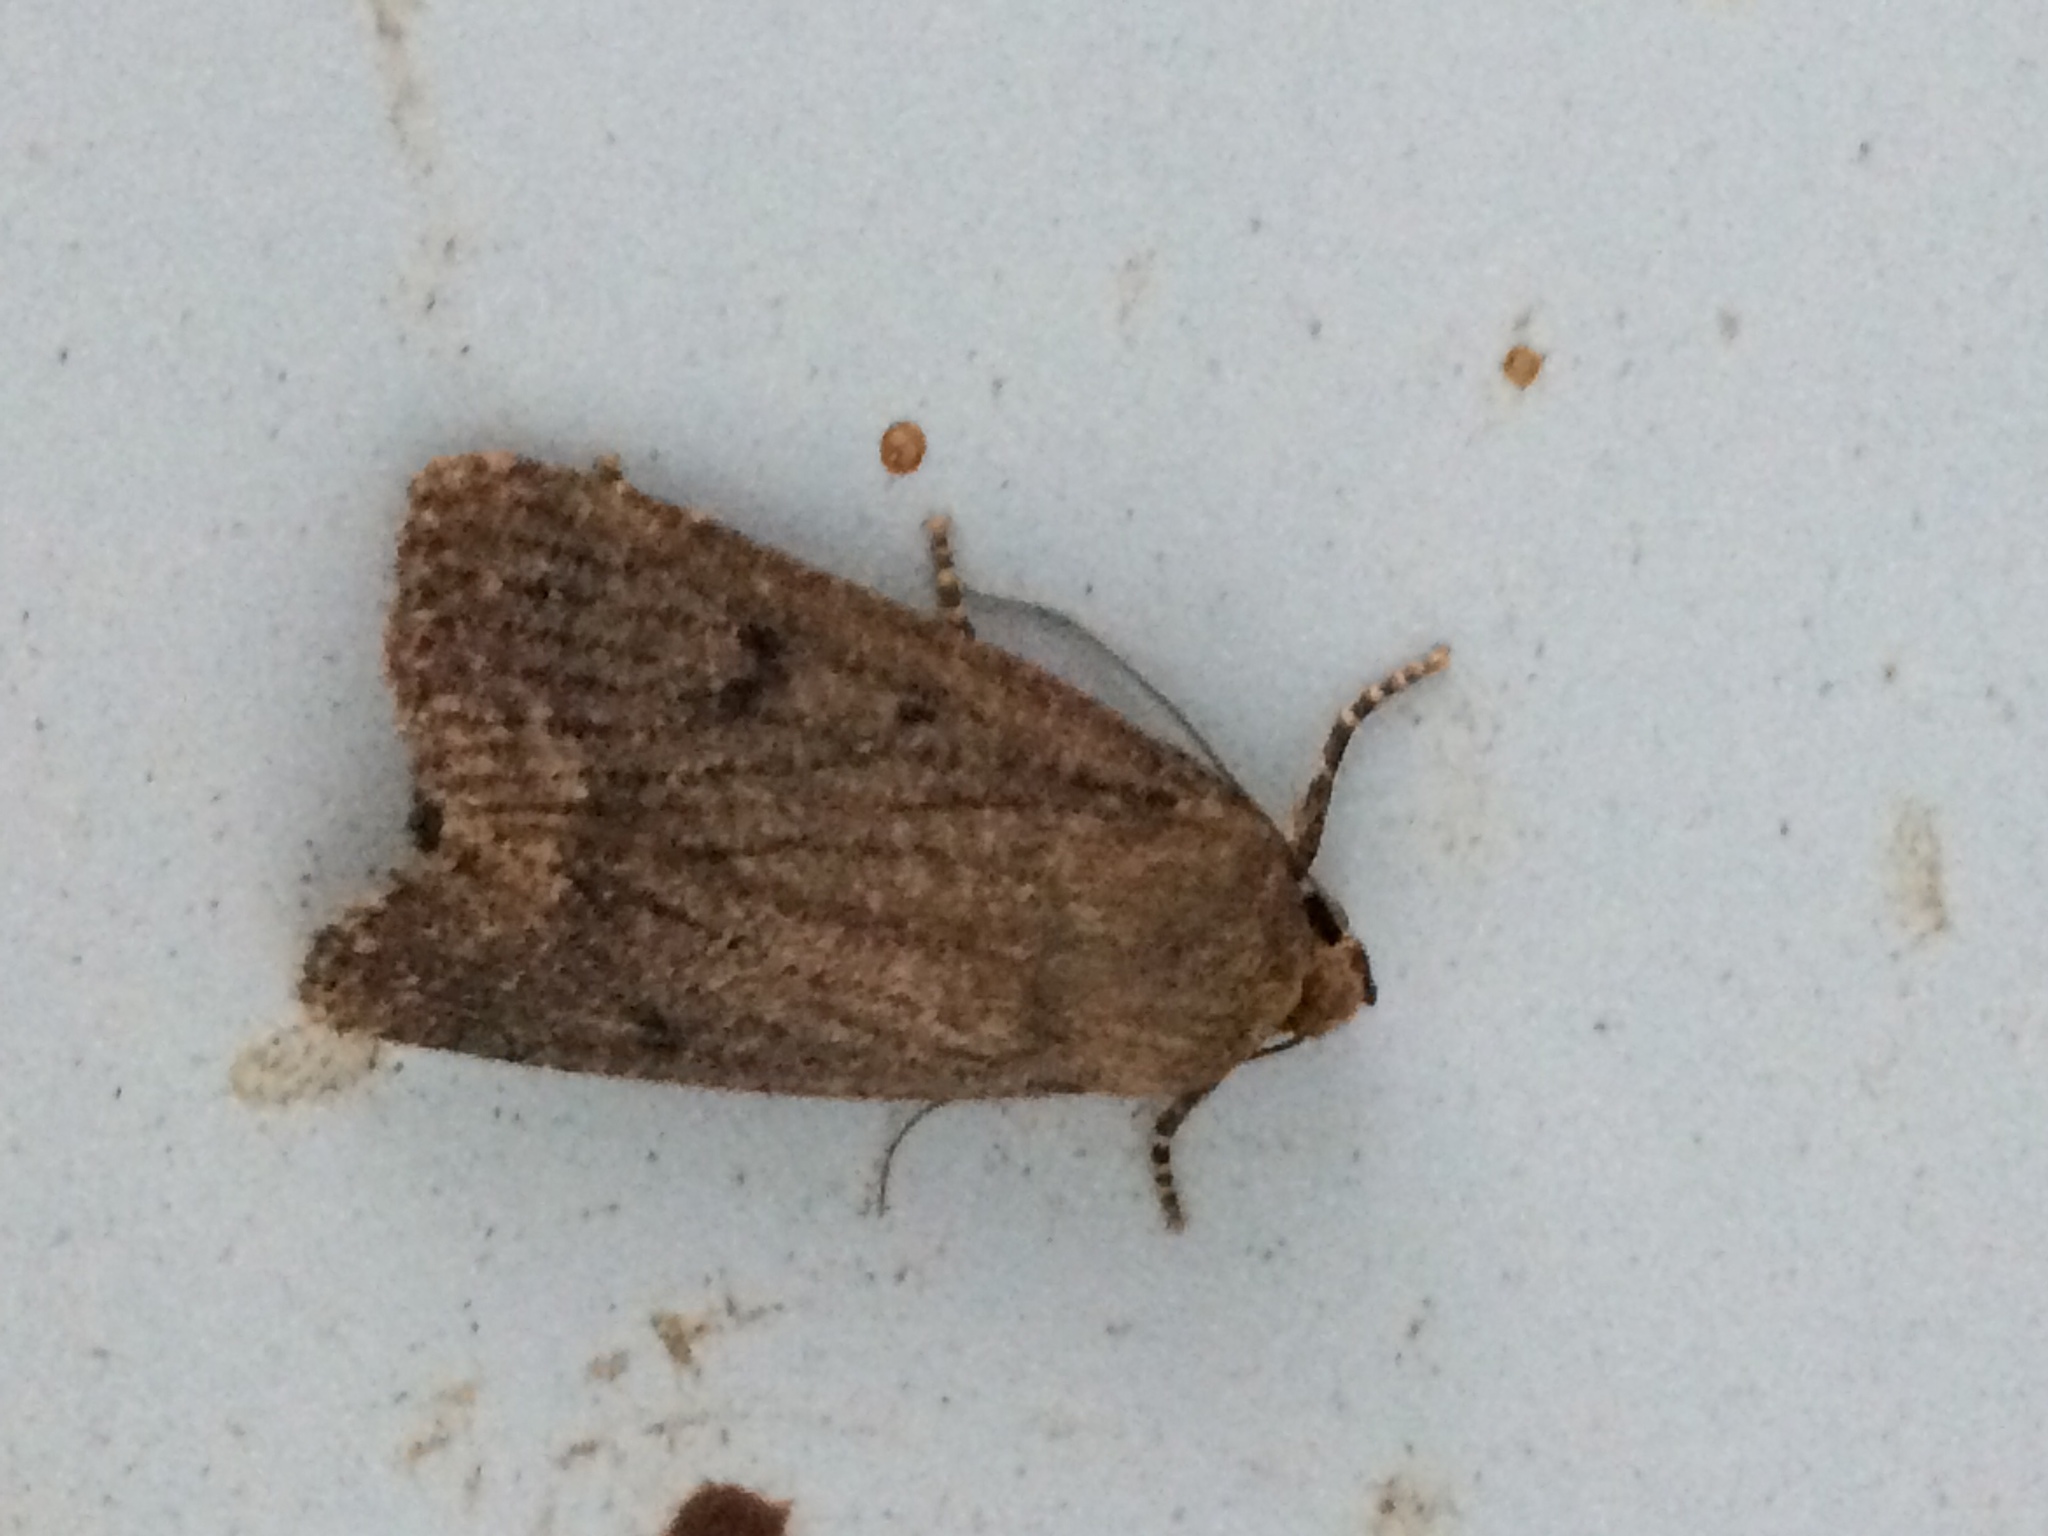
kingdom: Animalia
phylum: Arthropoda
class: Insecta
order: Lepidoptera
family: Noctuidae
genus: Amphipyra
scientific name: Amphipyra tragopoginis
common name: Mouse moth
